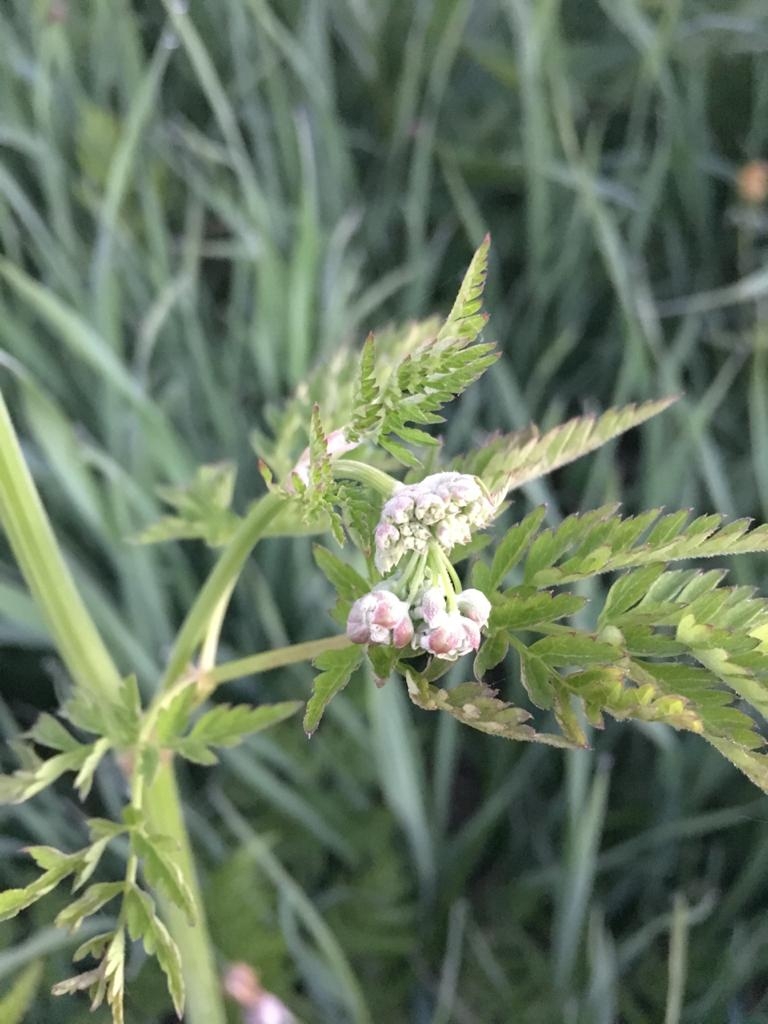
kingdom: Plantae
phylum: Tracheophyta
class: Magnoliopsida
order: Apiales
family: Apiaceae
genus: Anthriscus
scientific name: Anthriscus sylvestris
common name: Cow parsley
